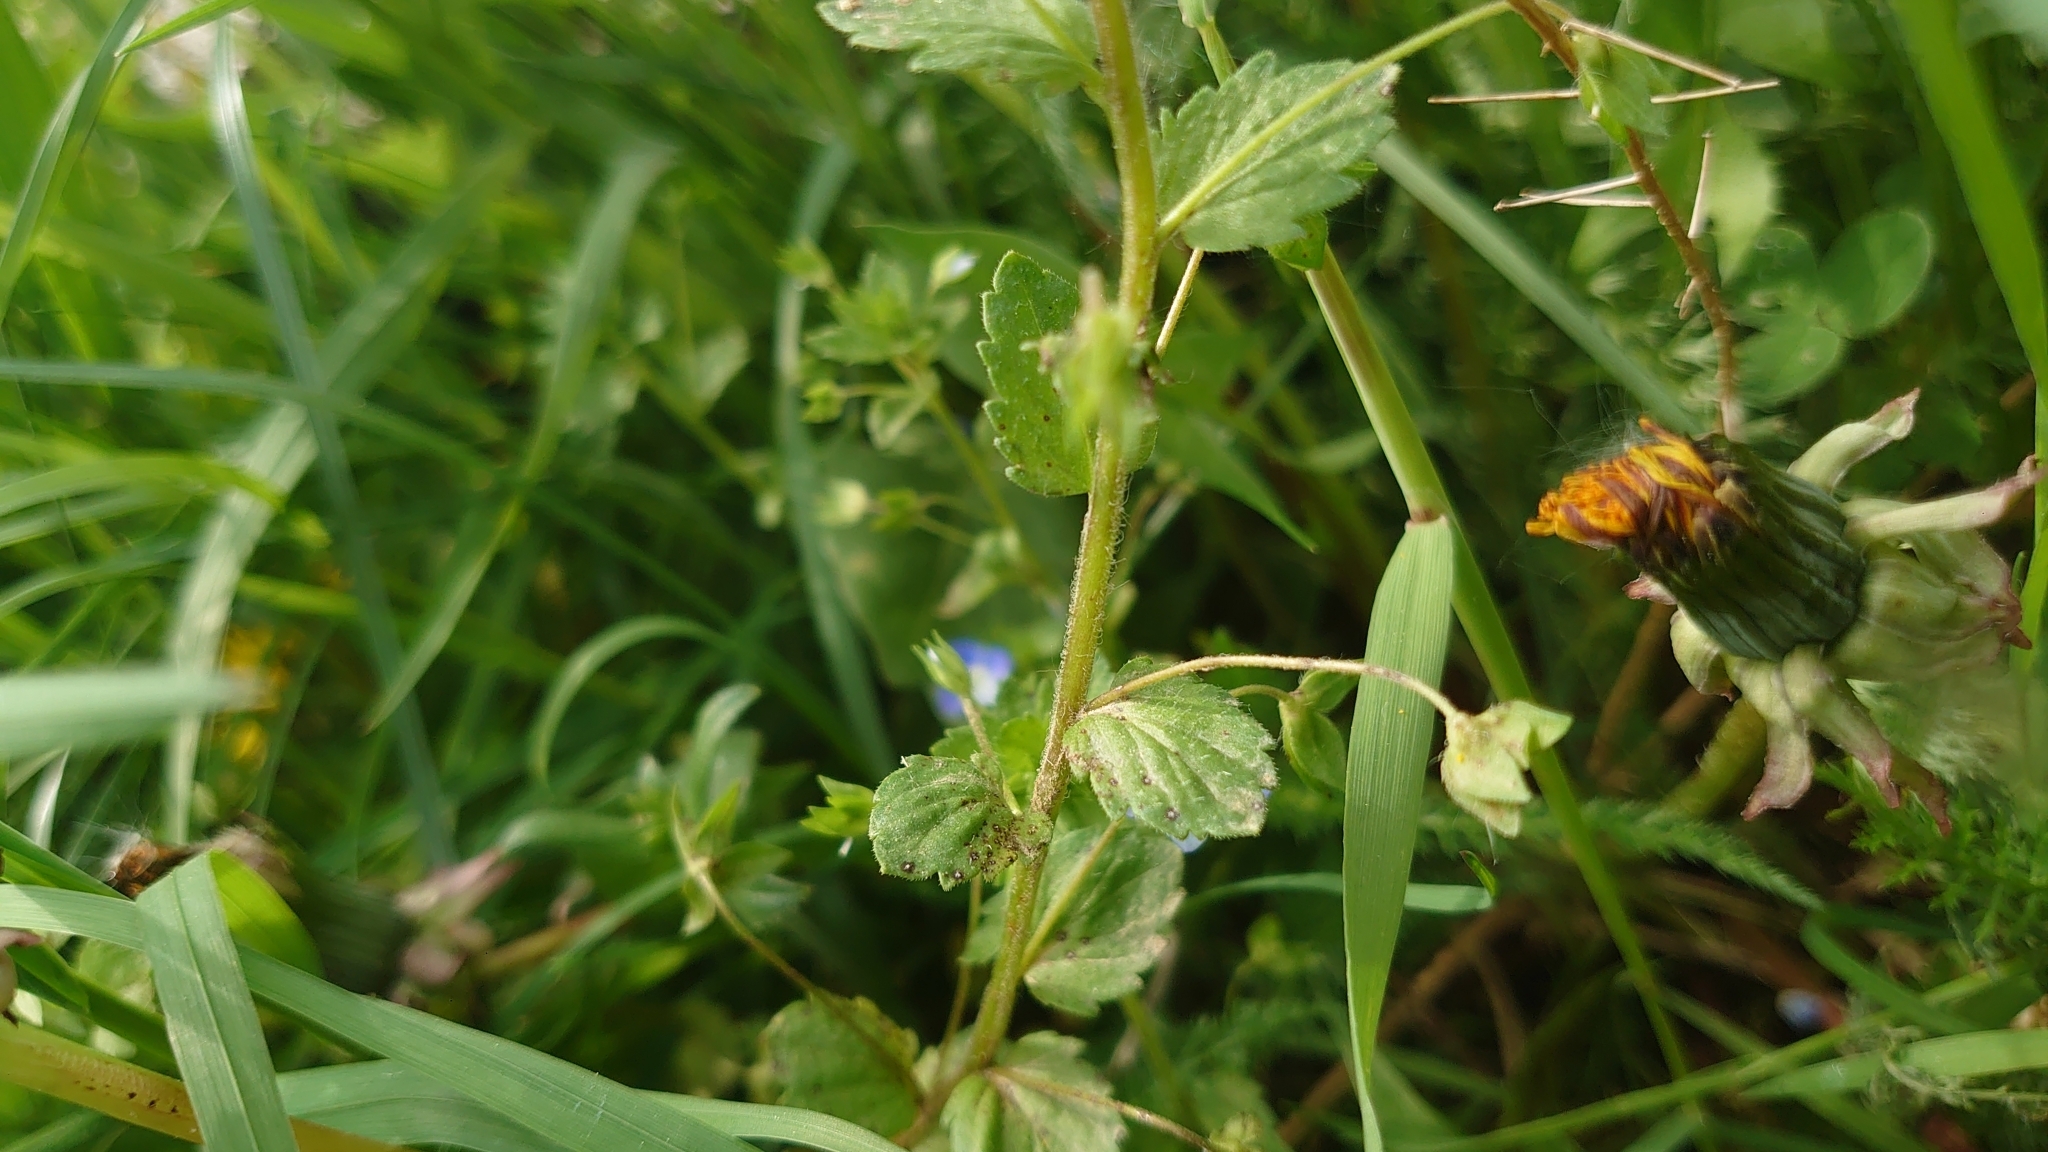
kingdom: Plantae
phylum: Tracheophyta
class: Magnoliopsida
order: Lamiales
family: Plantaginaceae
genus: Veronica
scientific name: Veronica persica
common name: Common field-speedwell
